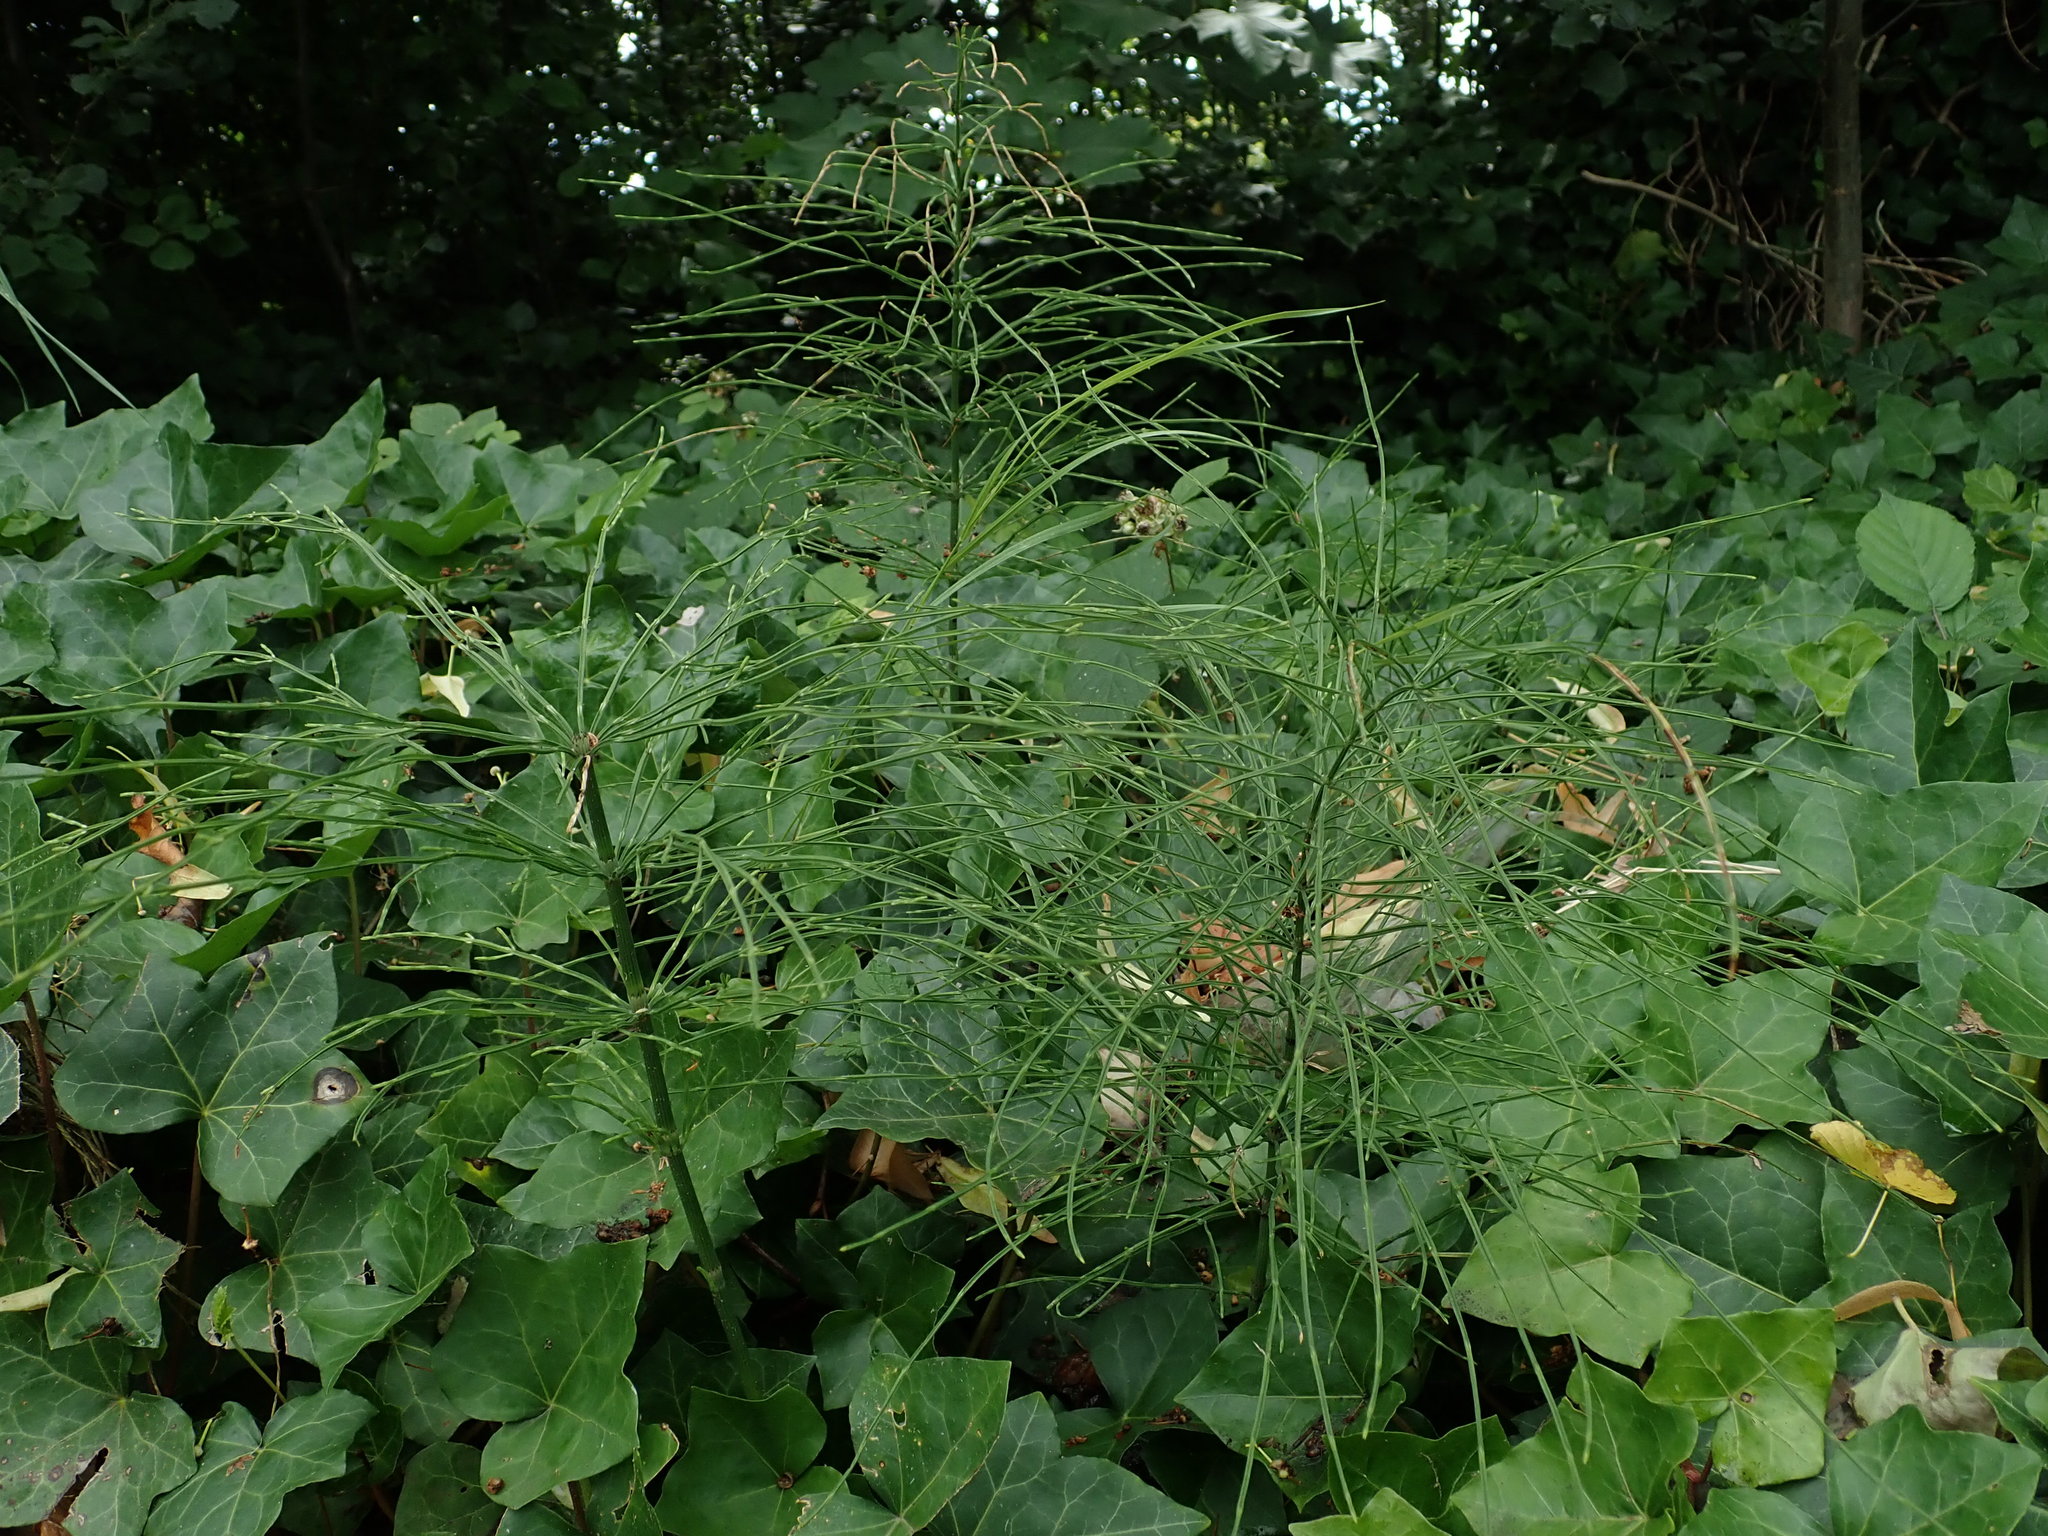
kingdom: Plantae
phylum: Tracheophyta
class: Polypodiopsida
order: Equisetales
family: Equisetaceae
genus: Equisetum
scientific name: Equisetum arvense
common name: Field horsetail
